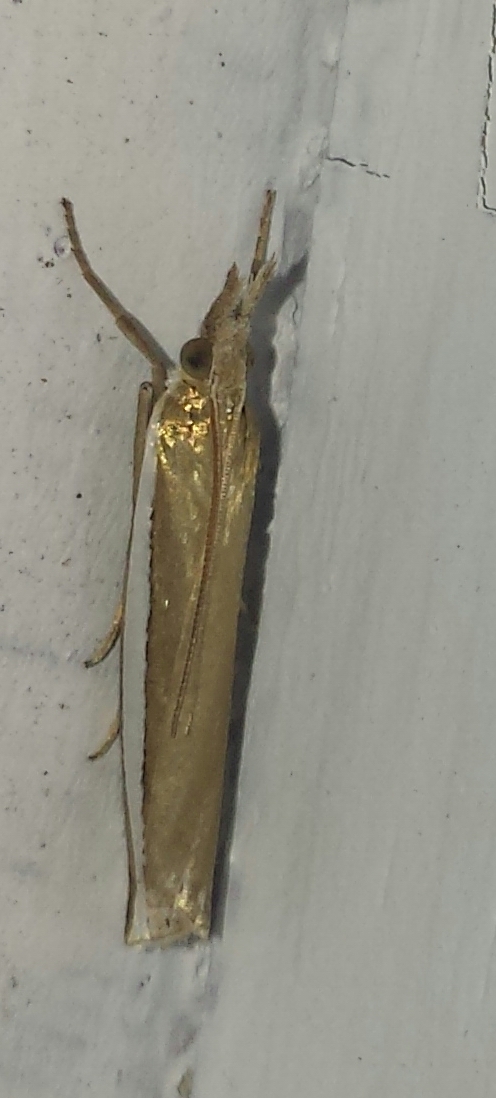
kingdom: Animalia
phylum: Arthropoda
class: Insecta
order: Lepidoptera
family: Crambidae
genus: Crambus
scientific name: Crambus unistriatellus
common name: Wide-stripe grass-veneer moth
